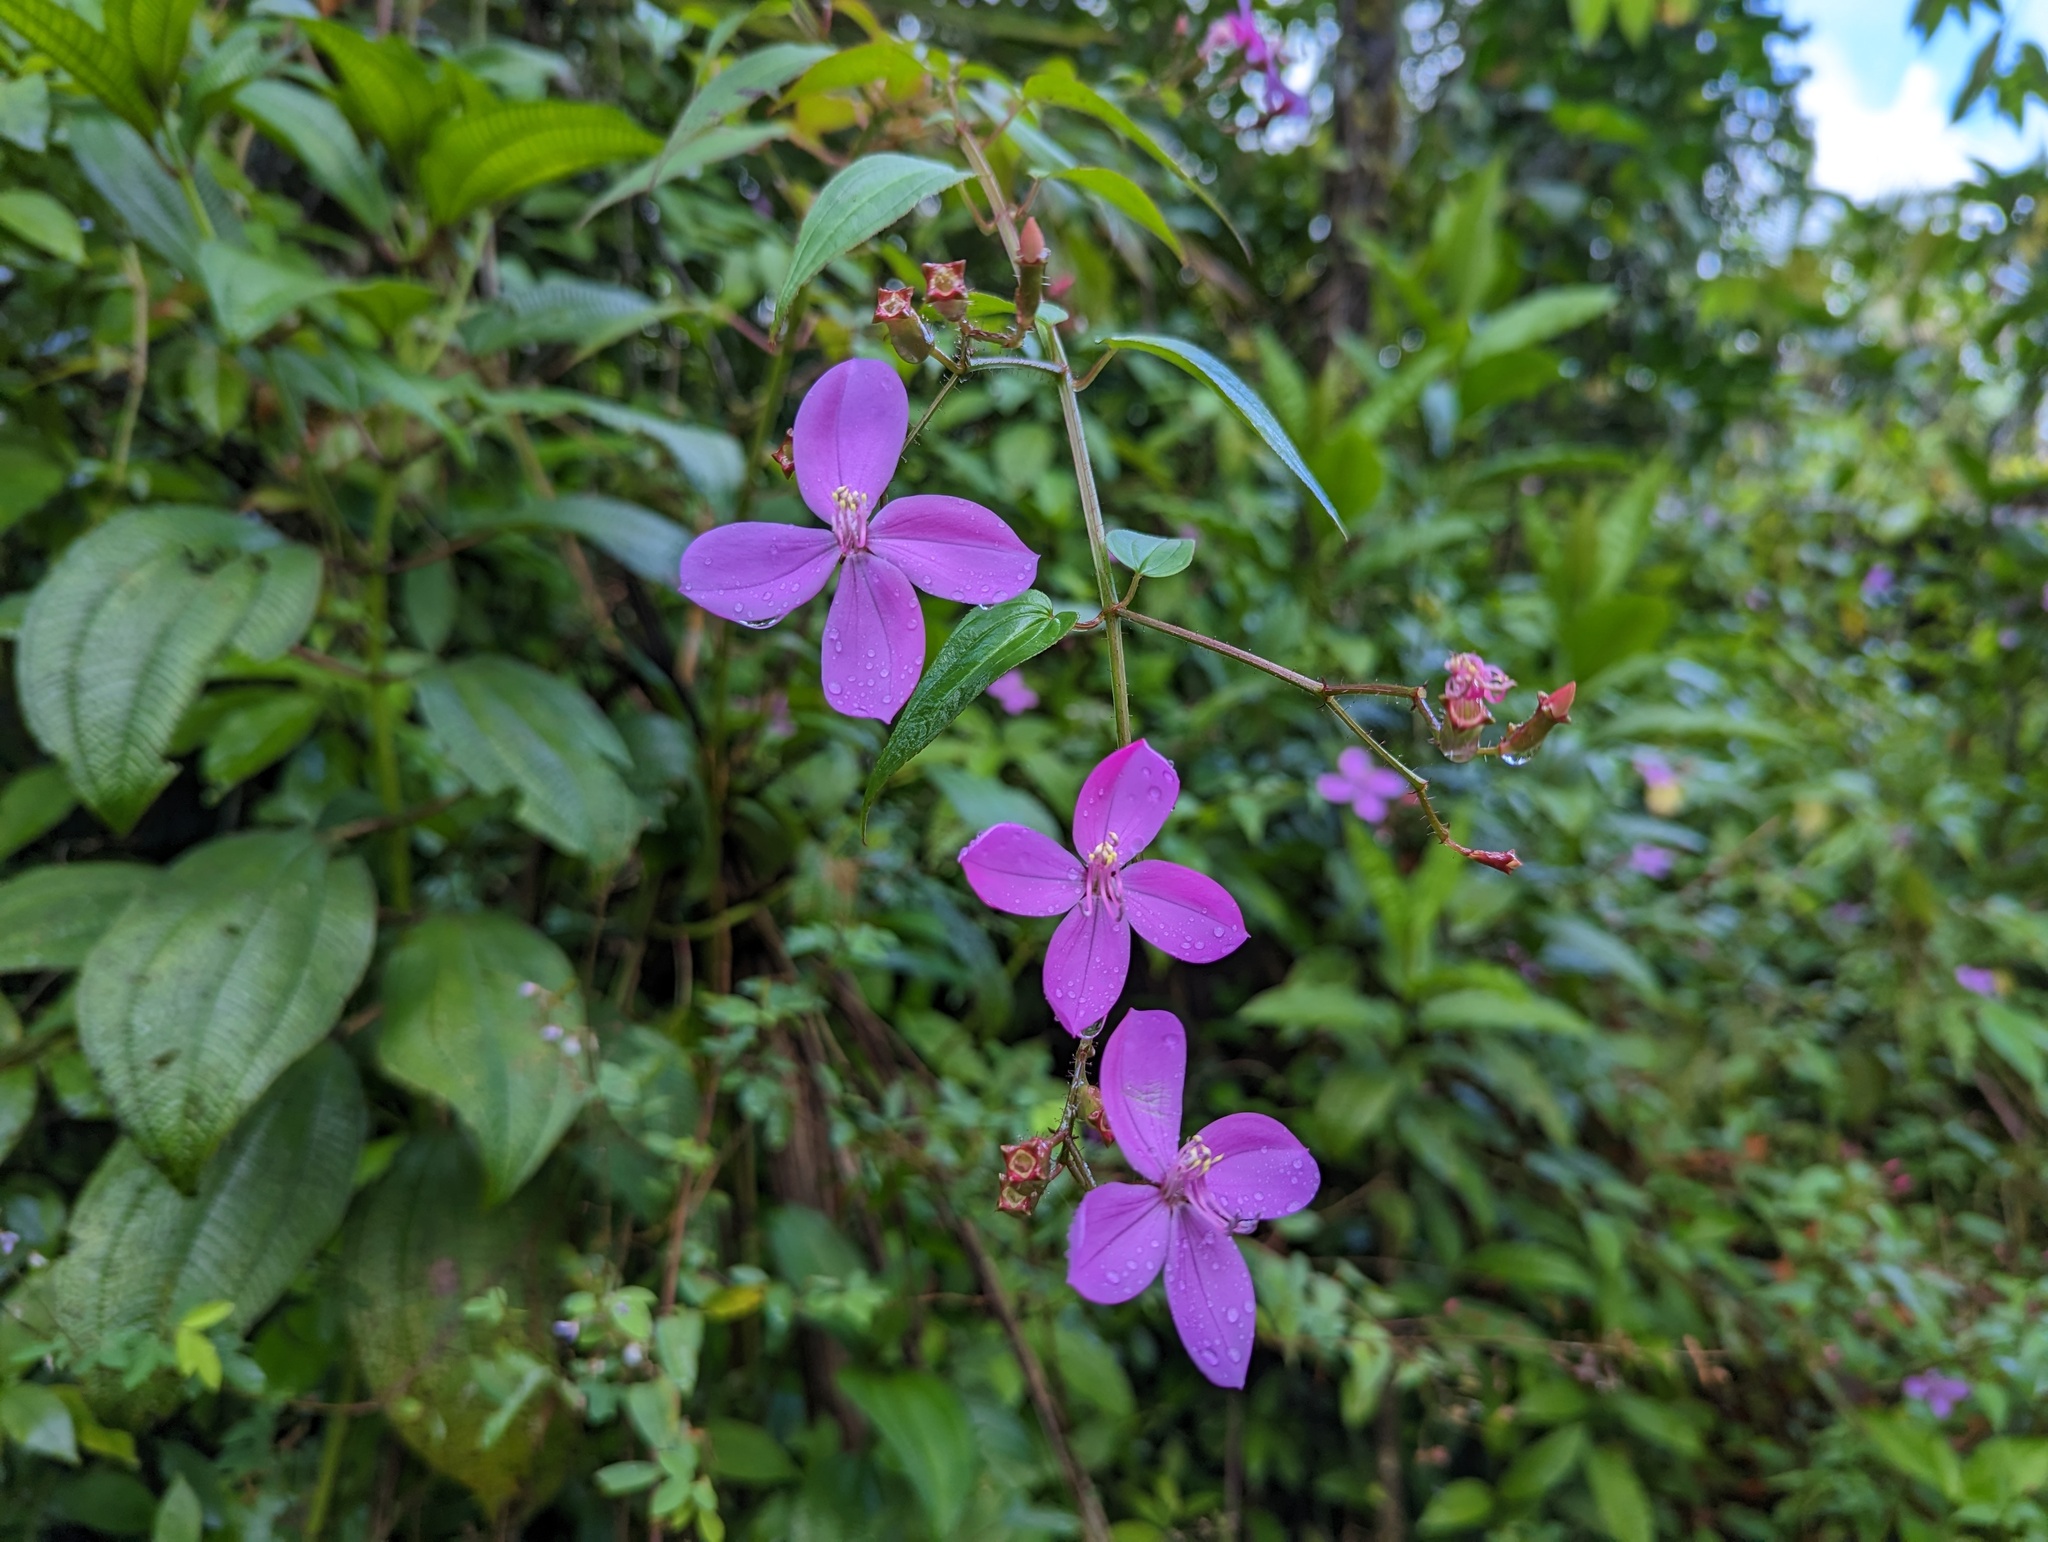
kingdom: Plantae
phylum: Tracheophyta
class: Magnoliopsida
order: Myrtales
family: Melastomataceae
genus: Arthrostemma
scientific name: Arthrostemma ciliatum
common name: Everblooming eavender
